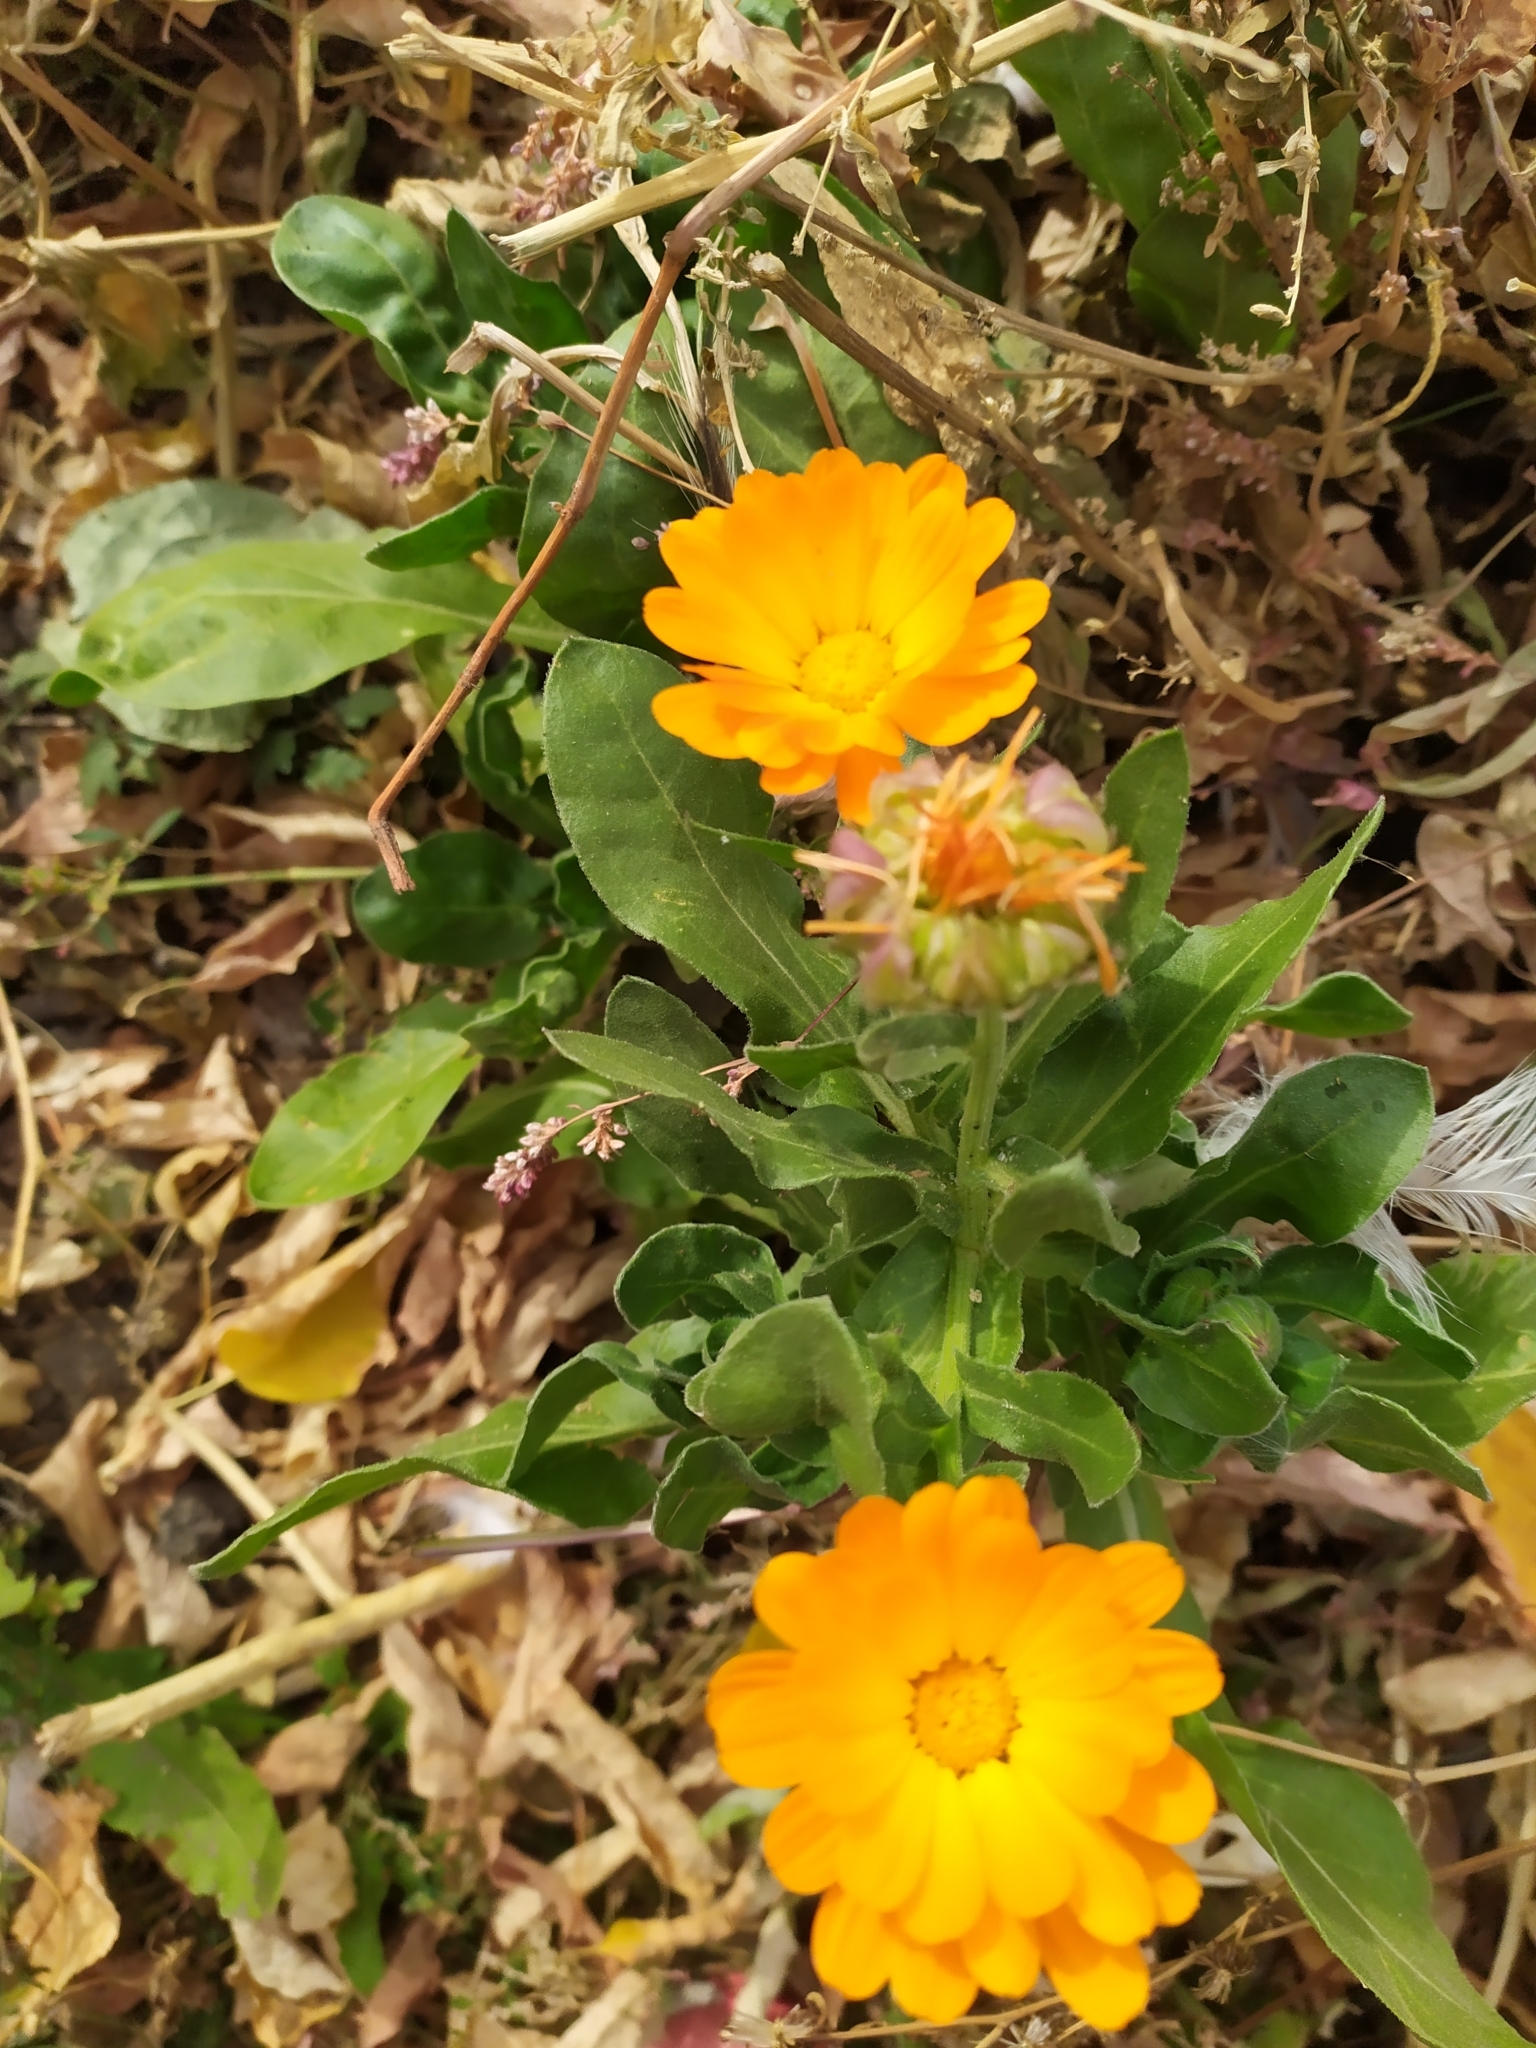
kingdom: Plantae
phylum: Tracheophyta
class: Magnoliopsida
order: Asterales
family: Asteraceae
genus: Calendula
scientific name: Calendula officinalis
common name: Pot marigold
